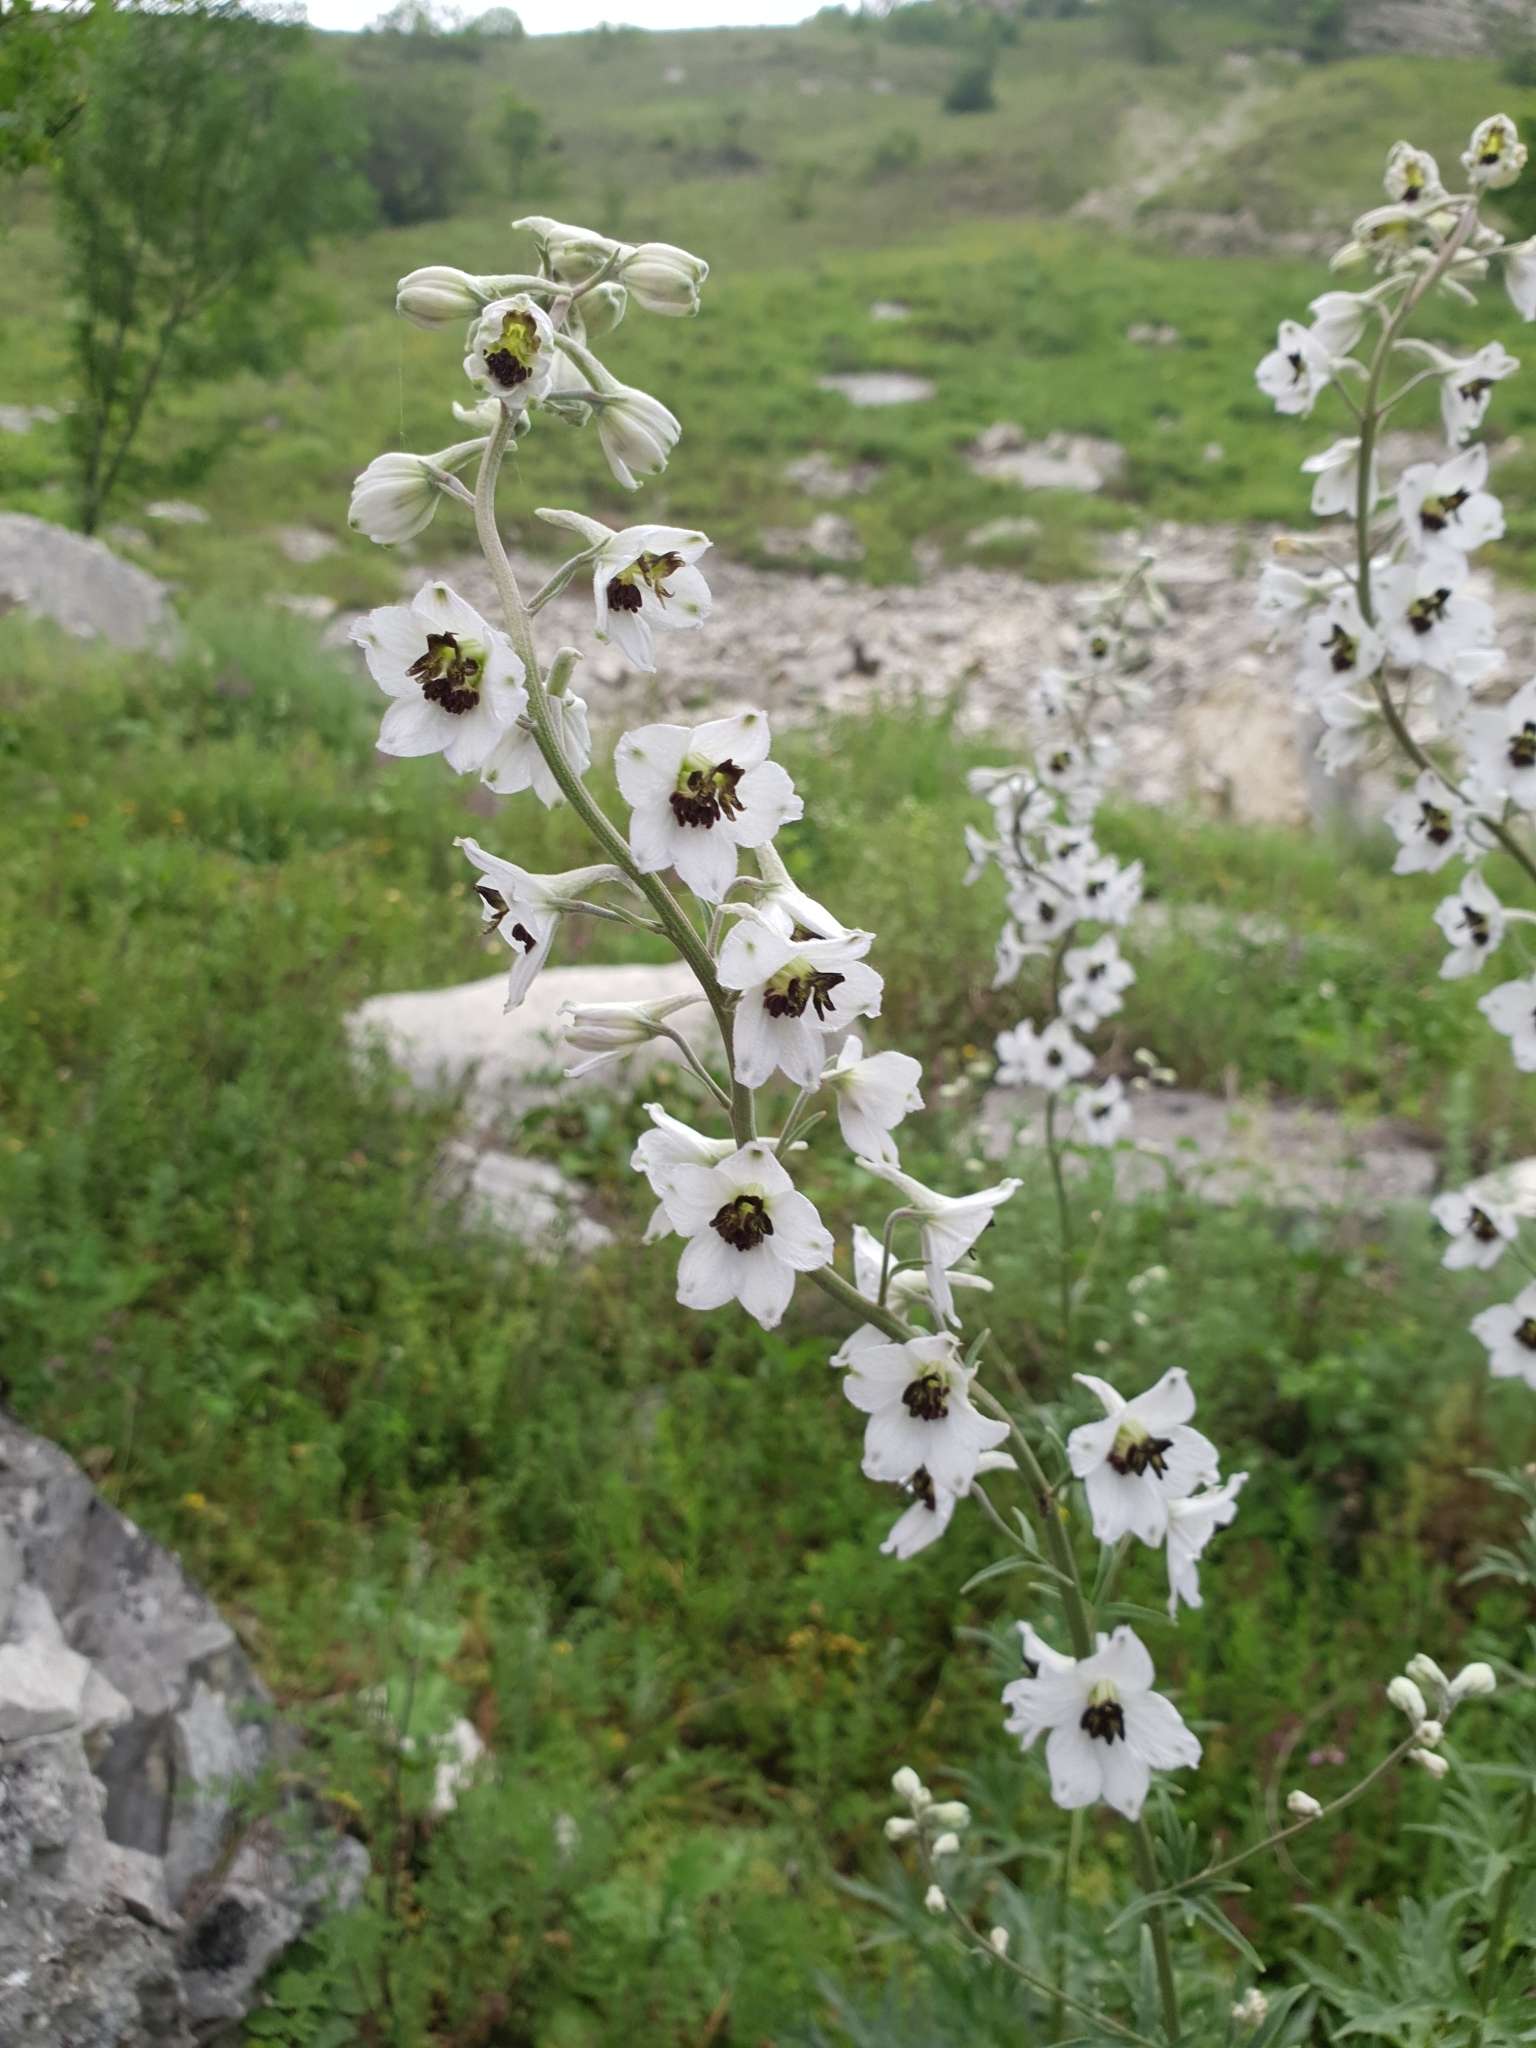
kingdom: Plantae
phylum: Tracheophyta
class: Magnoliopsida
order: Ranunculales
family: Ranunculaceae
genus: Delphinium
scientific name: Delphinium crispulum
